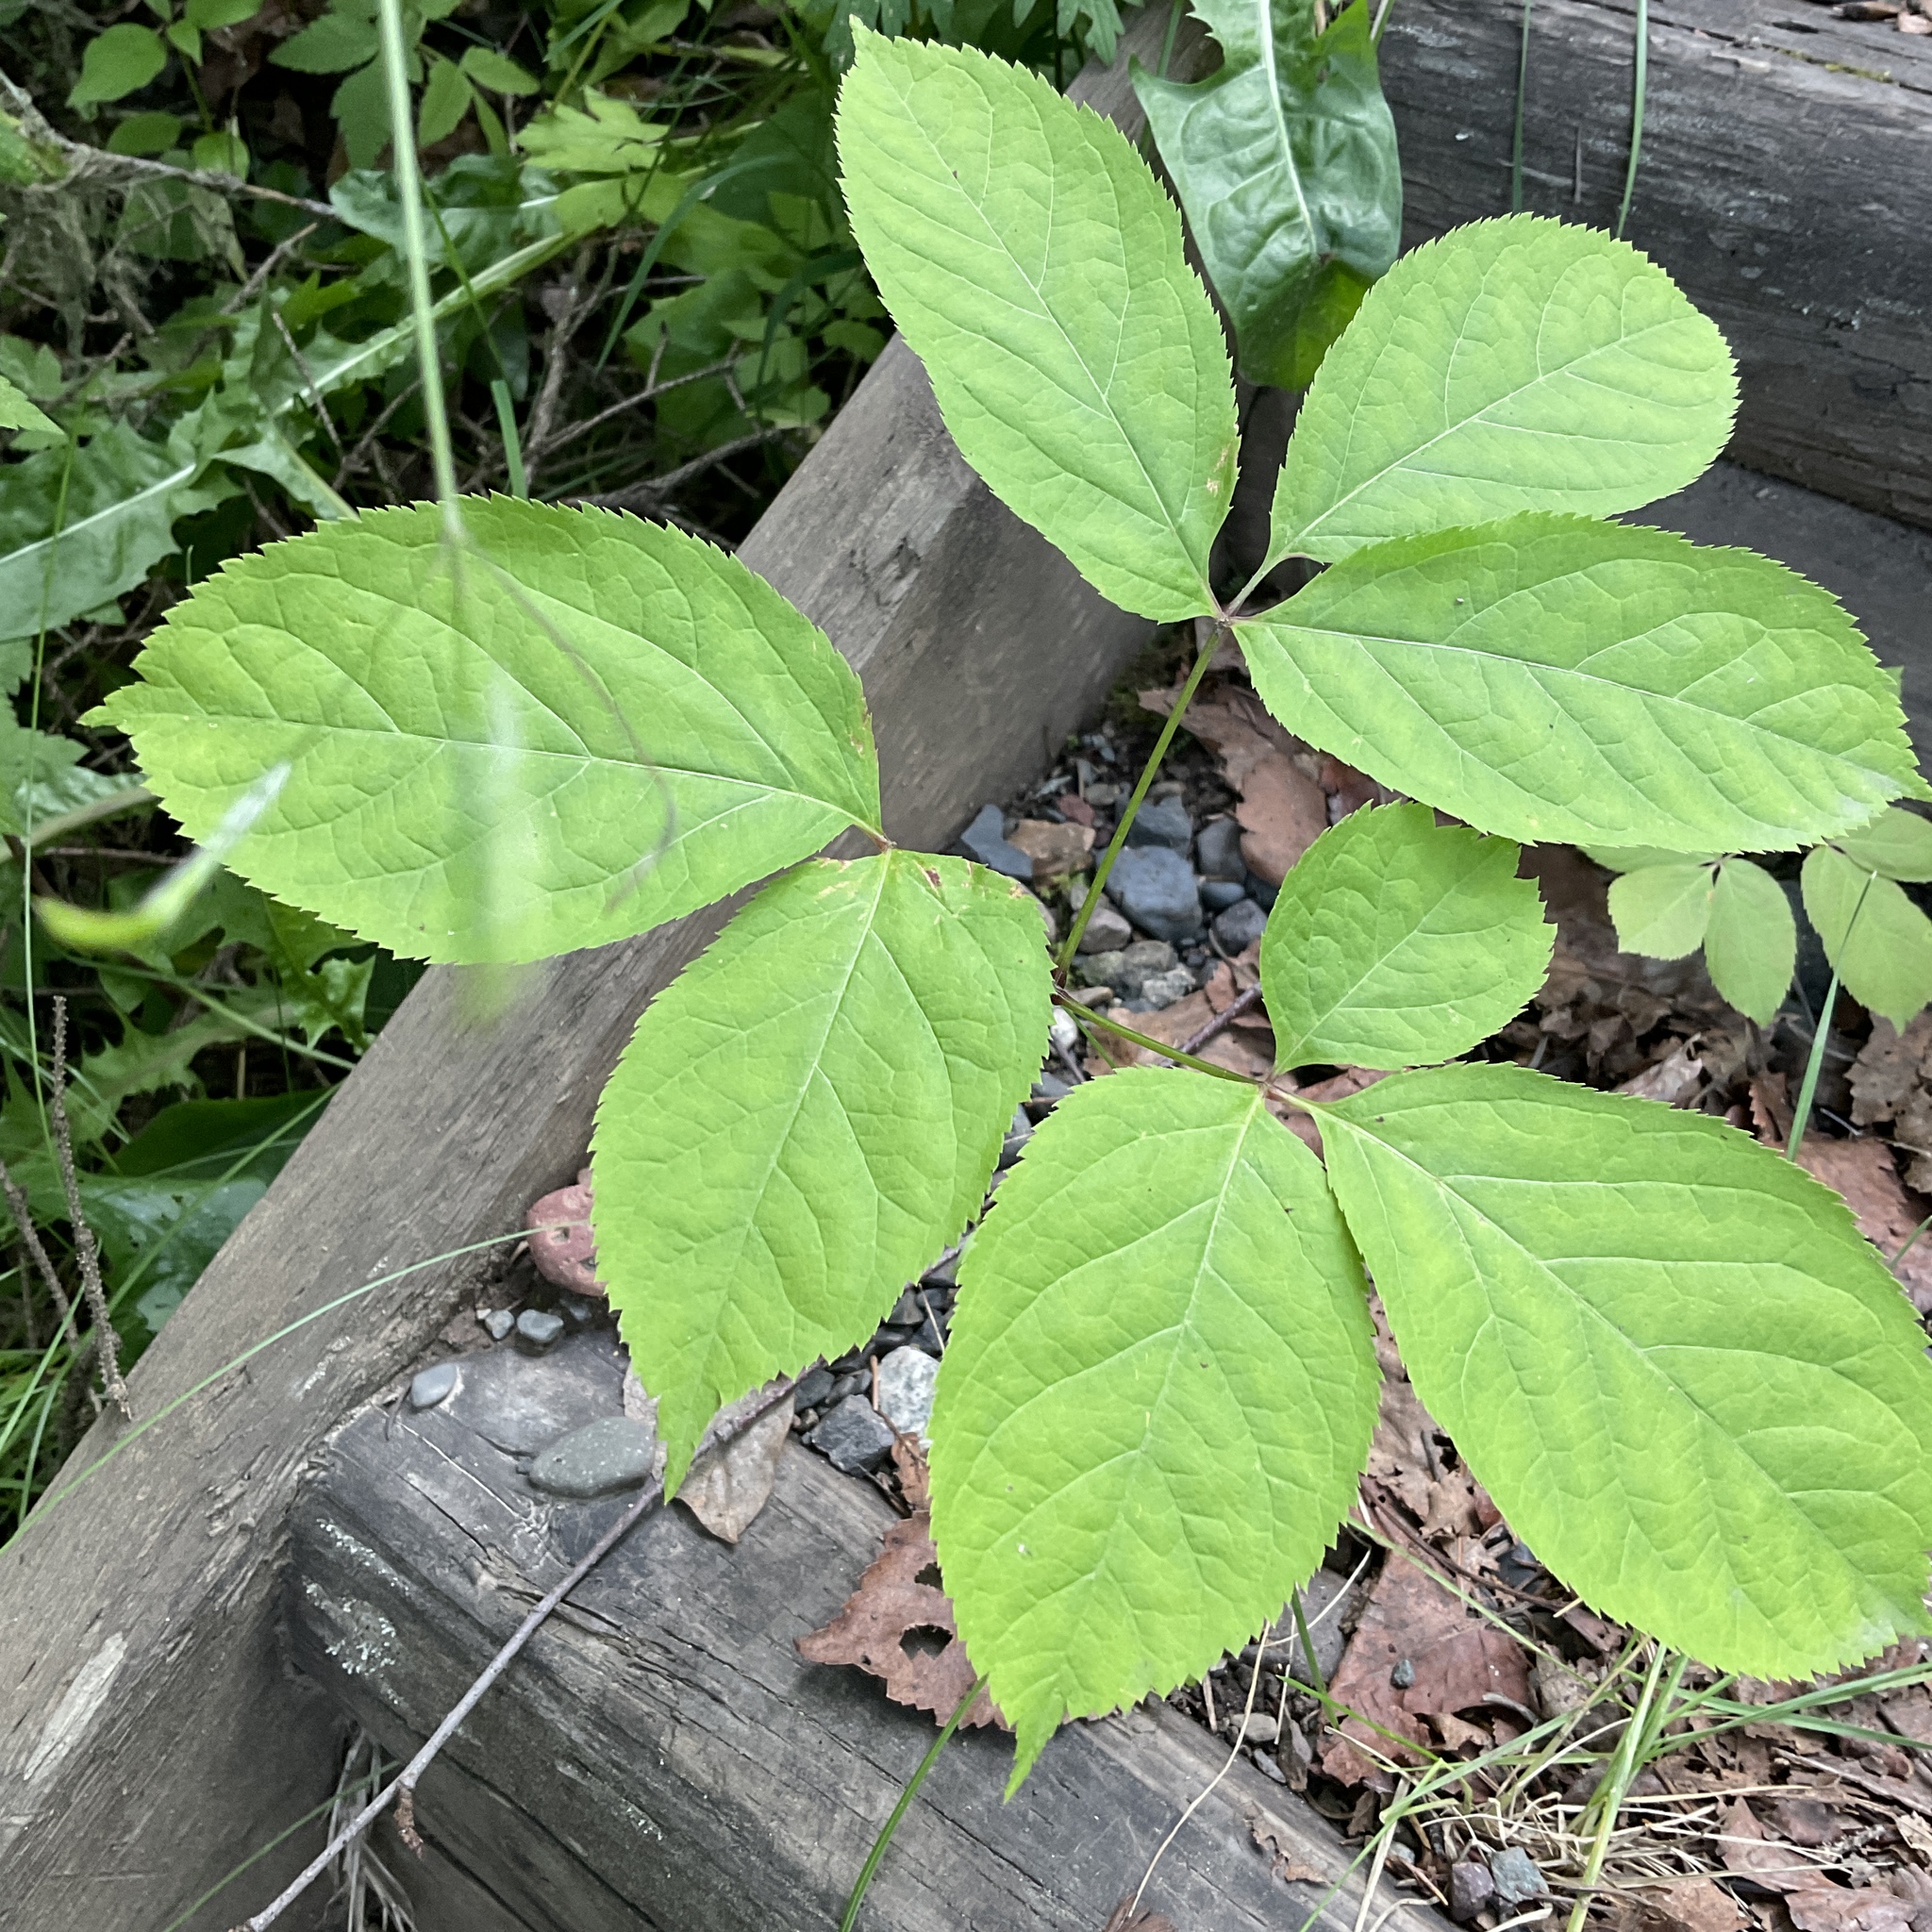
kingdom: Plantae
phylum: Tracheophyta
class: Magnoliopsida
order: Apiales
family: Araliaceae
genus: Aralia
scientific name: Aralia nudicaulis
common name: Wild sarsaparilla
